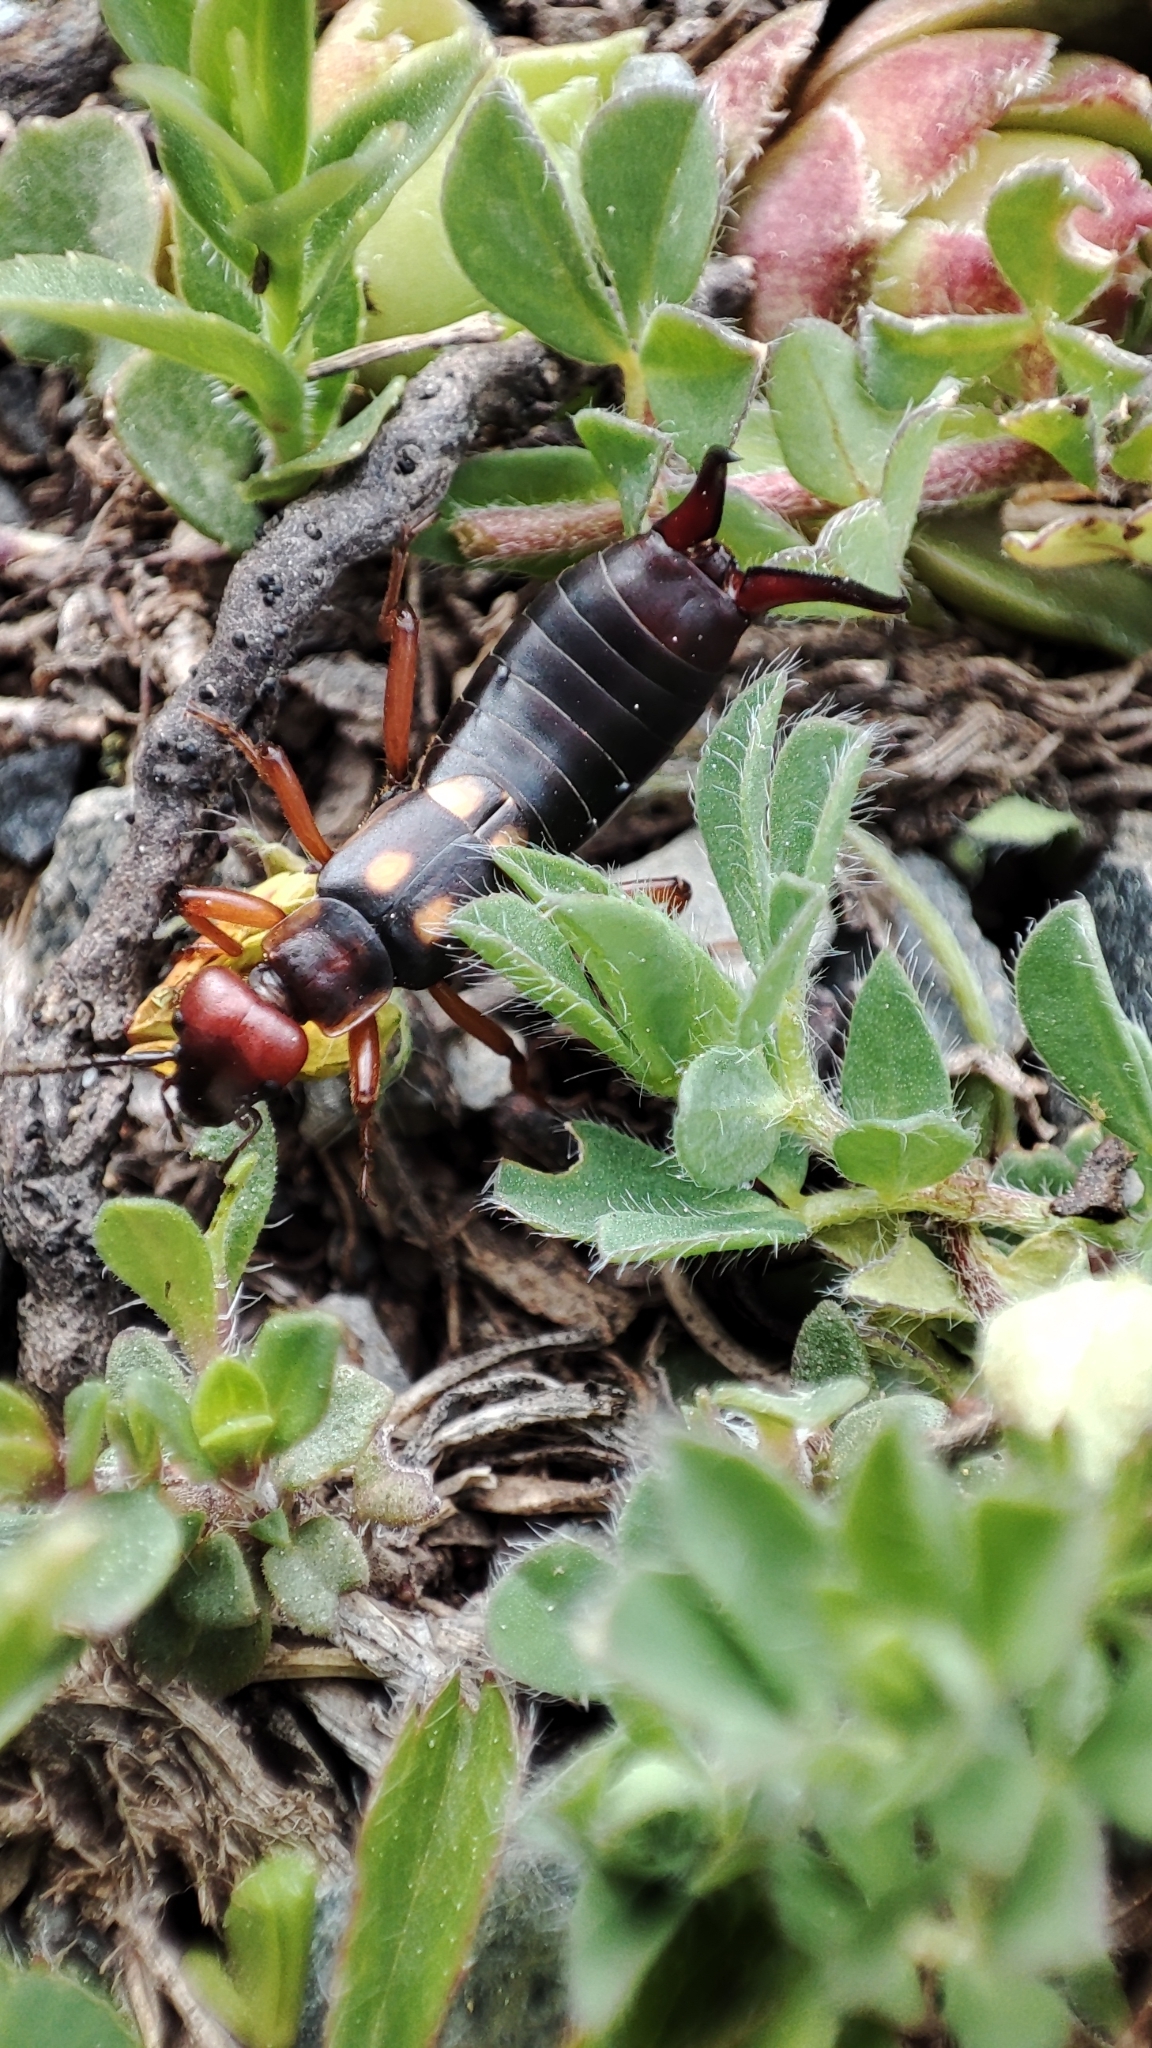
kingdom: Animalia
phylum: Arthropoda
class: Insecta
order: Dermaptera
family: Forficulidae
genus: Anechura
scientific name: Anechura bipunctata
